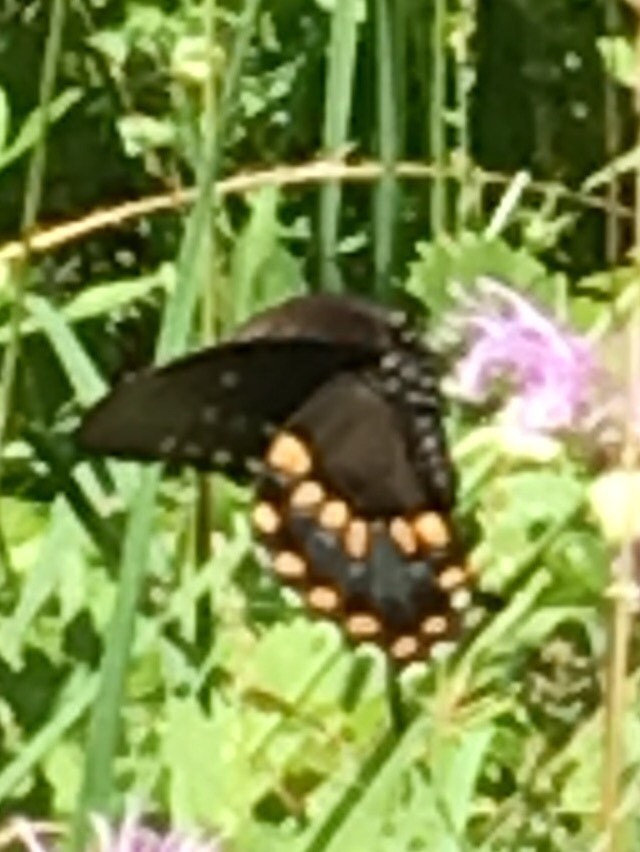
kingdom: Animalia
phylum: Arthropoda
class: Insecta
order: Lepidoptera
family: Papilionidae
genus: Papilio
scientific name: Papilio troilus
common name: Spicebush swallowtail
